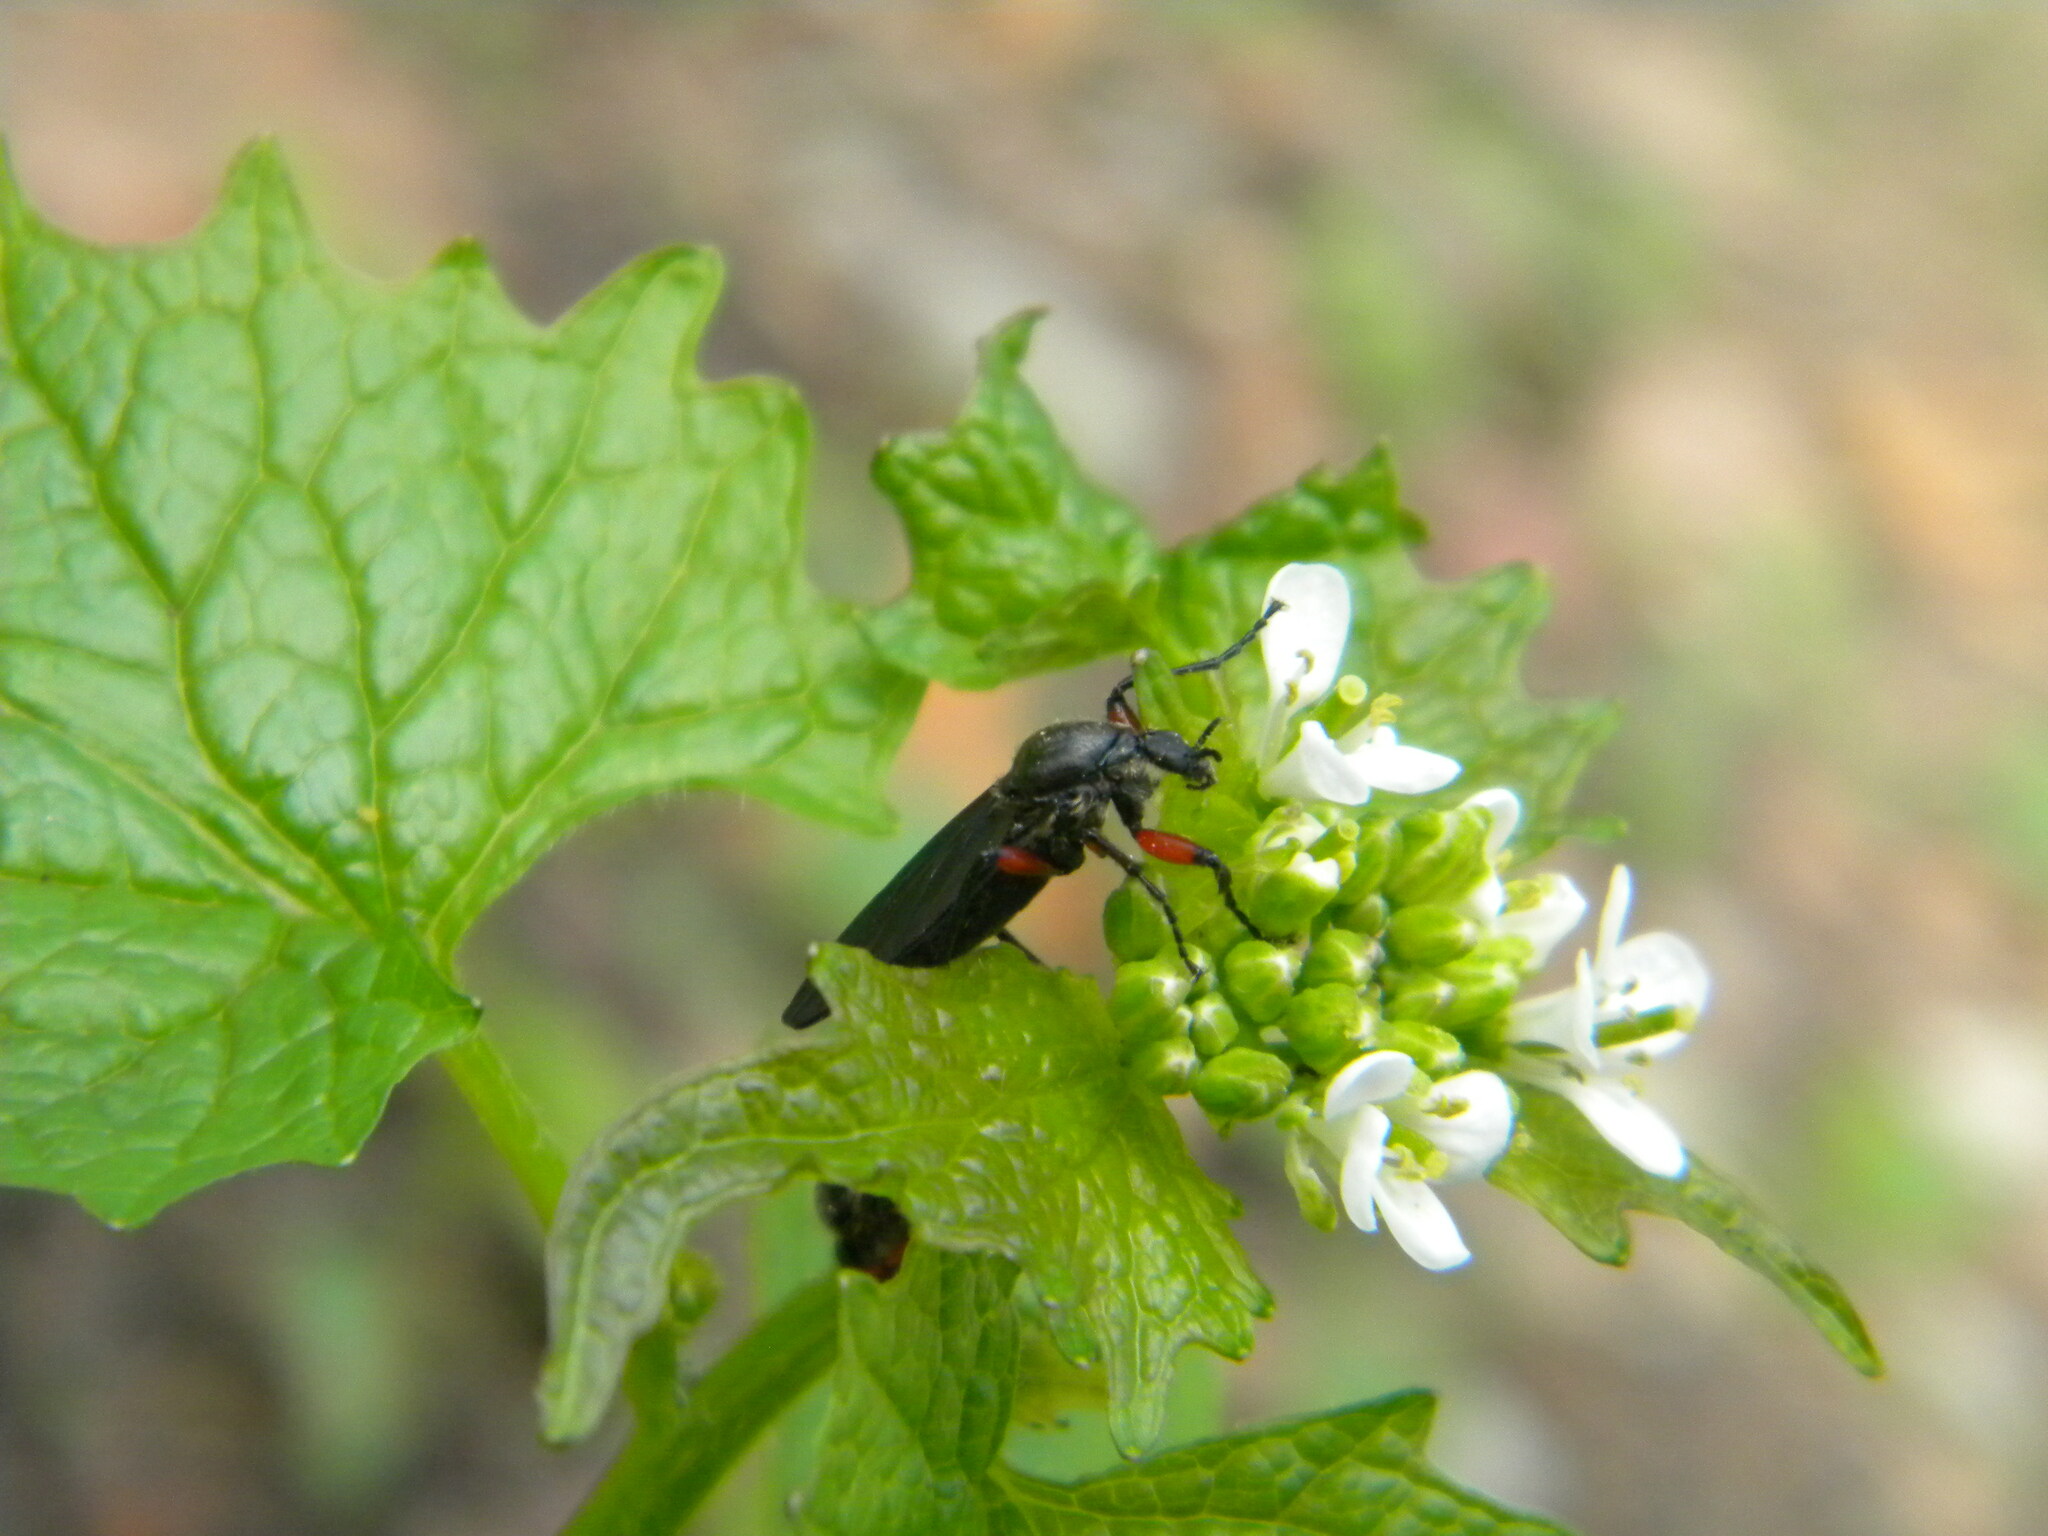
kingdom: Animalia
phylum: Arthropoda
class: Insecta
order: Diptera
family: Bibionidae
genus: Bibio
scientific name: Bibio femoratus
